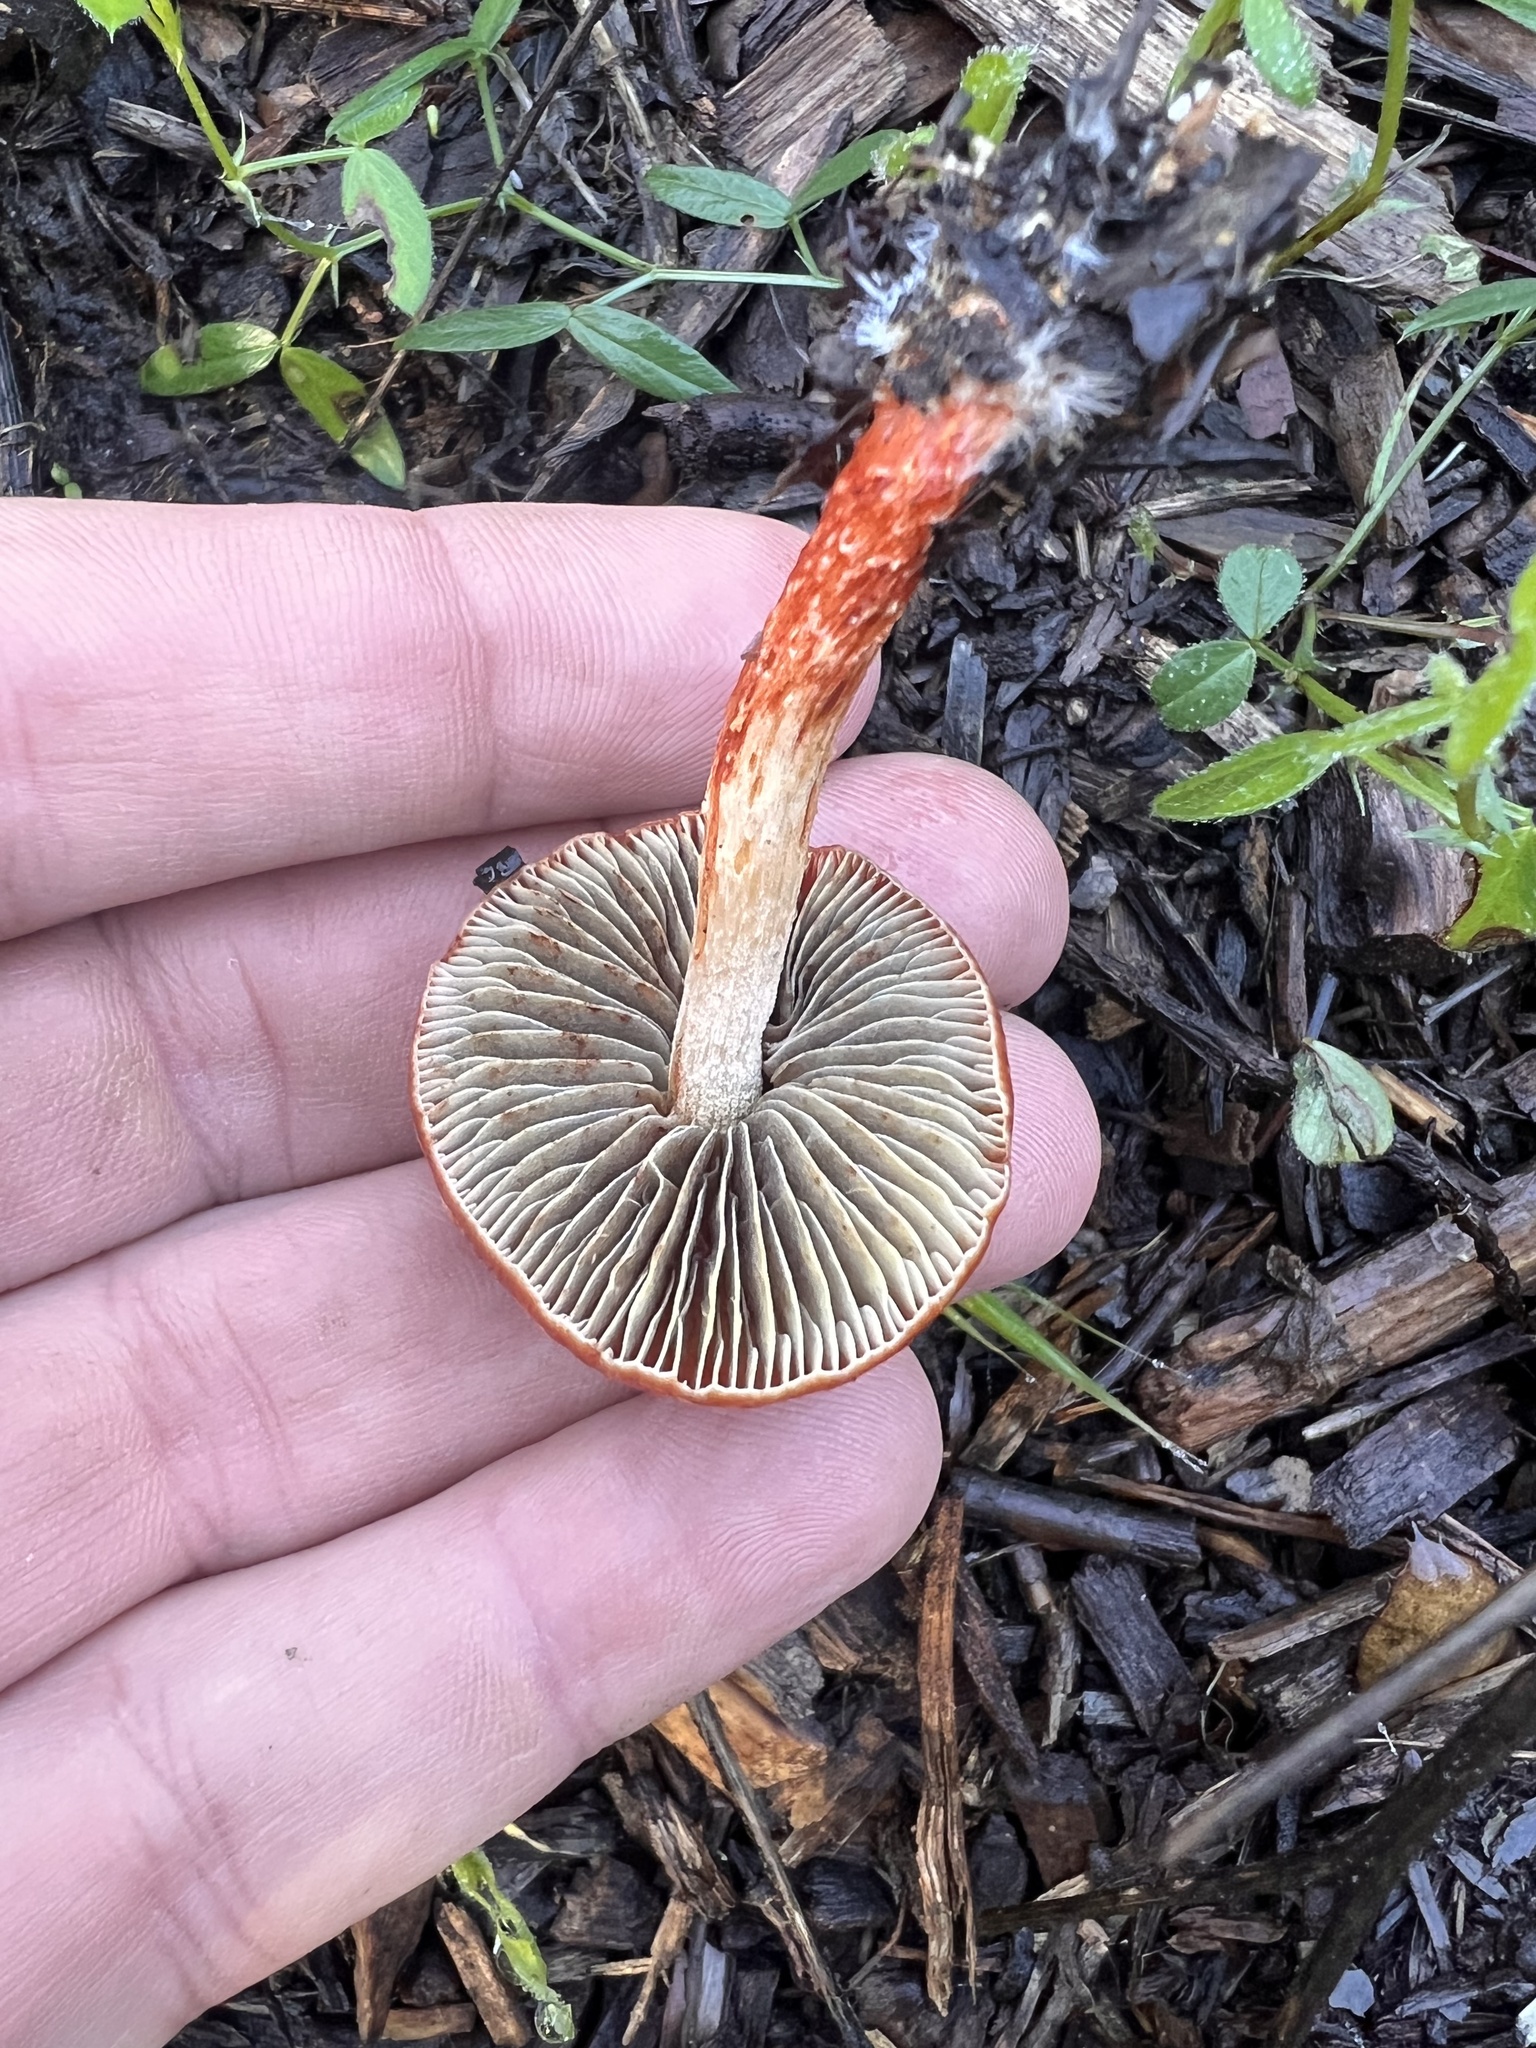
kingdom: Fungi
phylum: Basidiomycota
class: Agaricomycetes
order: Agaricales
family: Strophariaceae
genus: Leratiomyces
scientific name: Leratiomyces ceres
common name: Redlead roundhead
